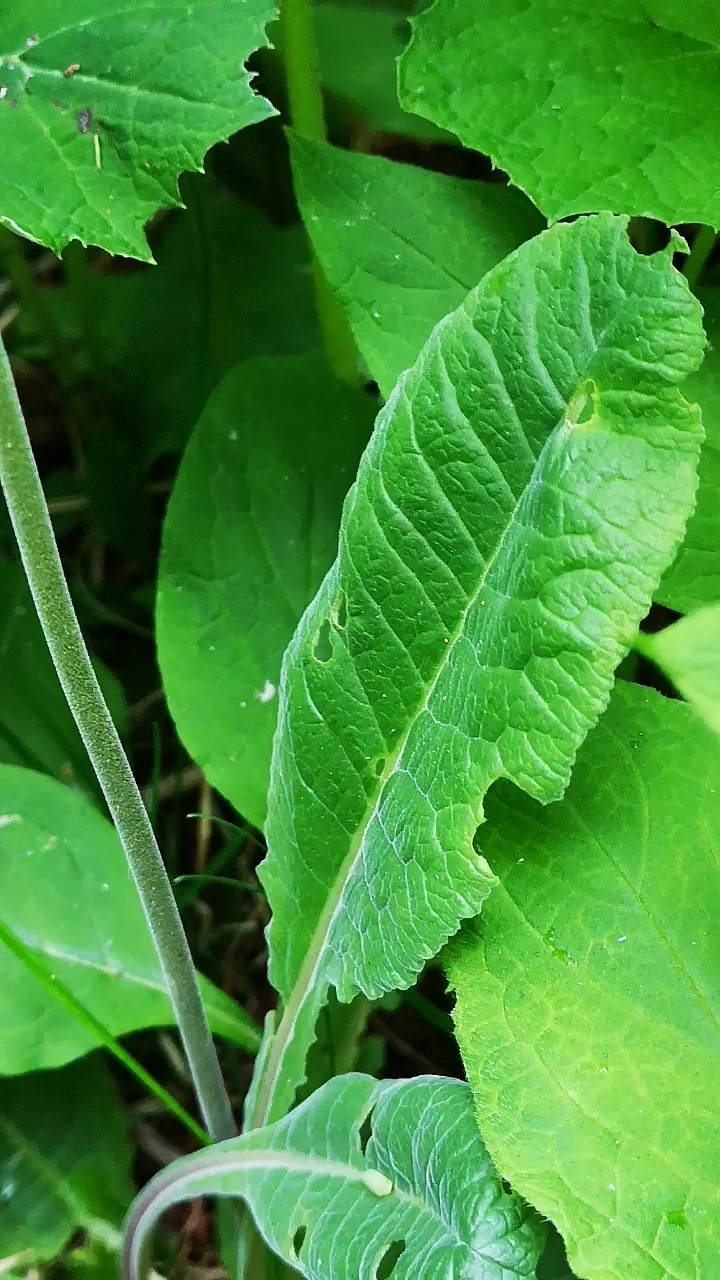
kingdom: Plantae
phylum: Tracheophyta
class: Magnoliopsida
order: Ericales
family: Primulaceae
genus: Primula
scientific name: Primula veris
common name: Cowslip
